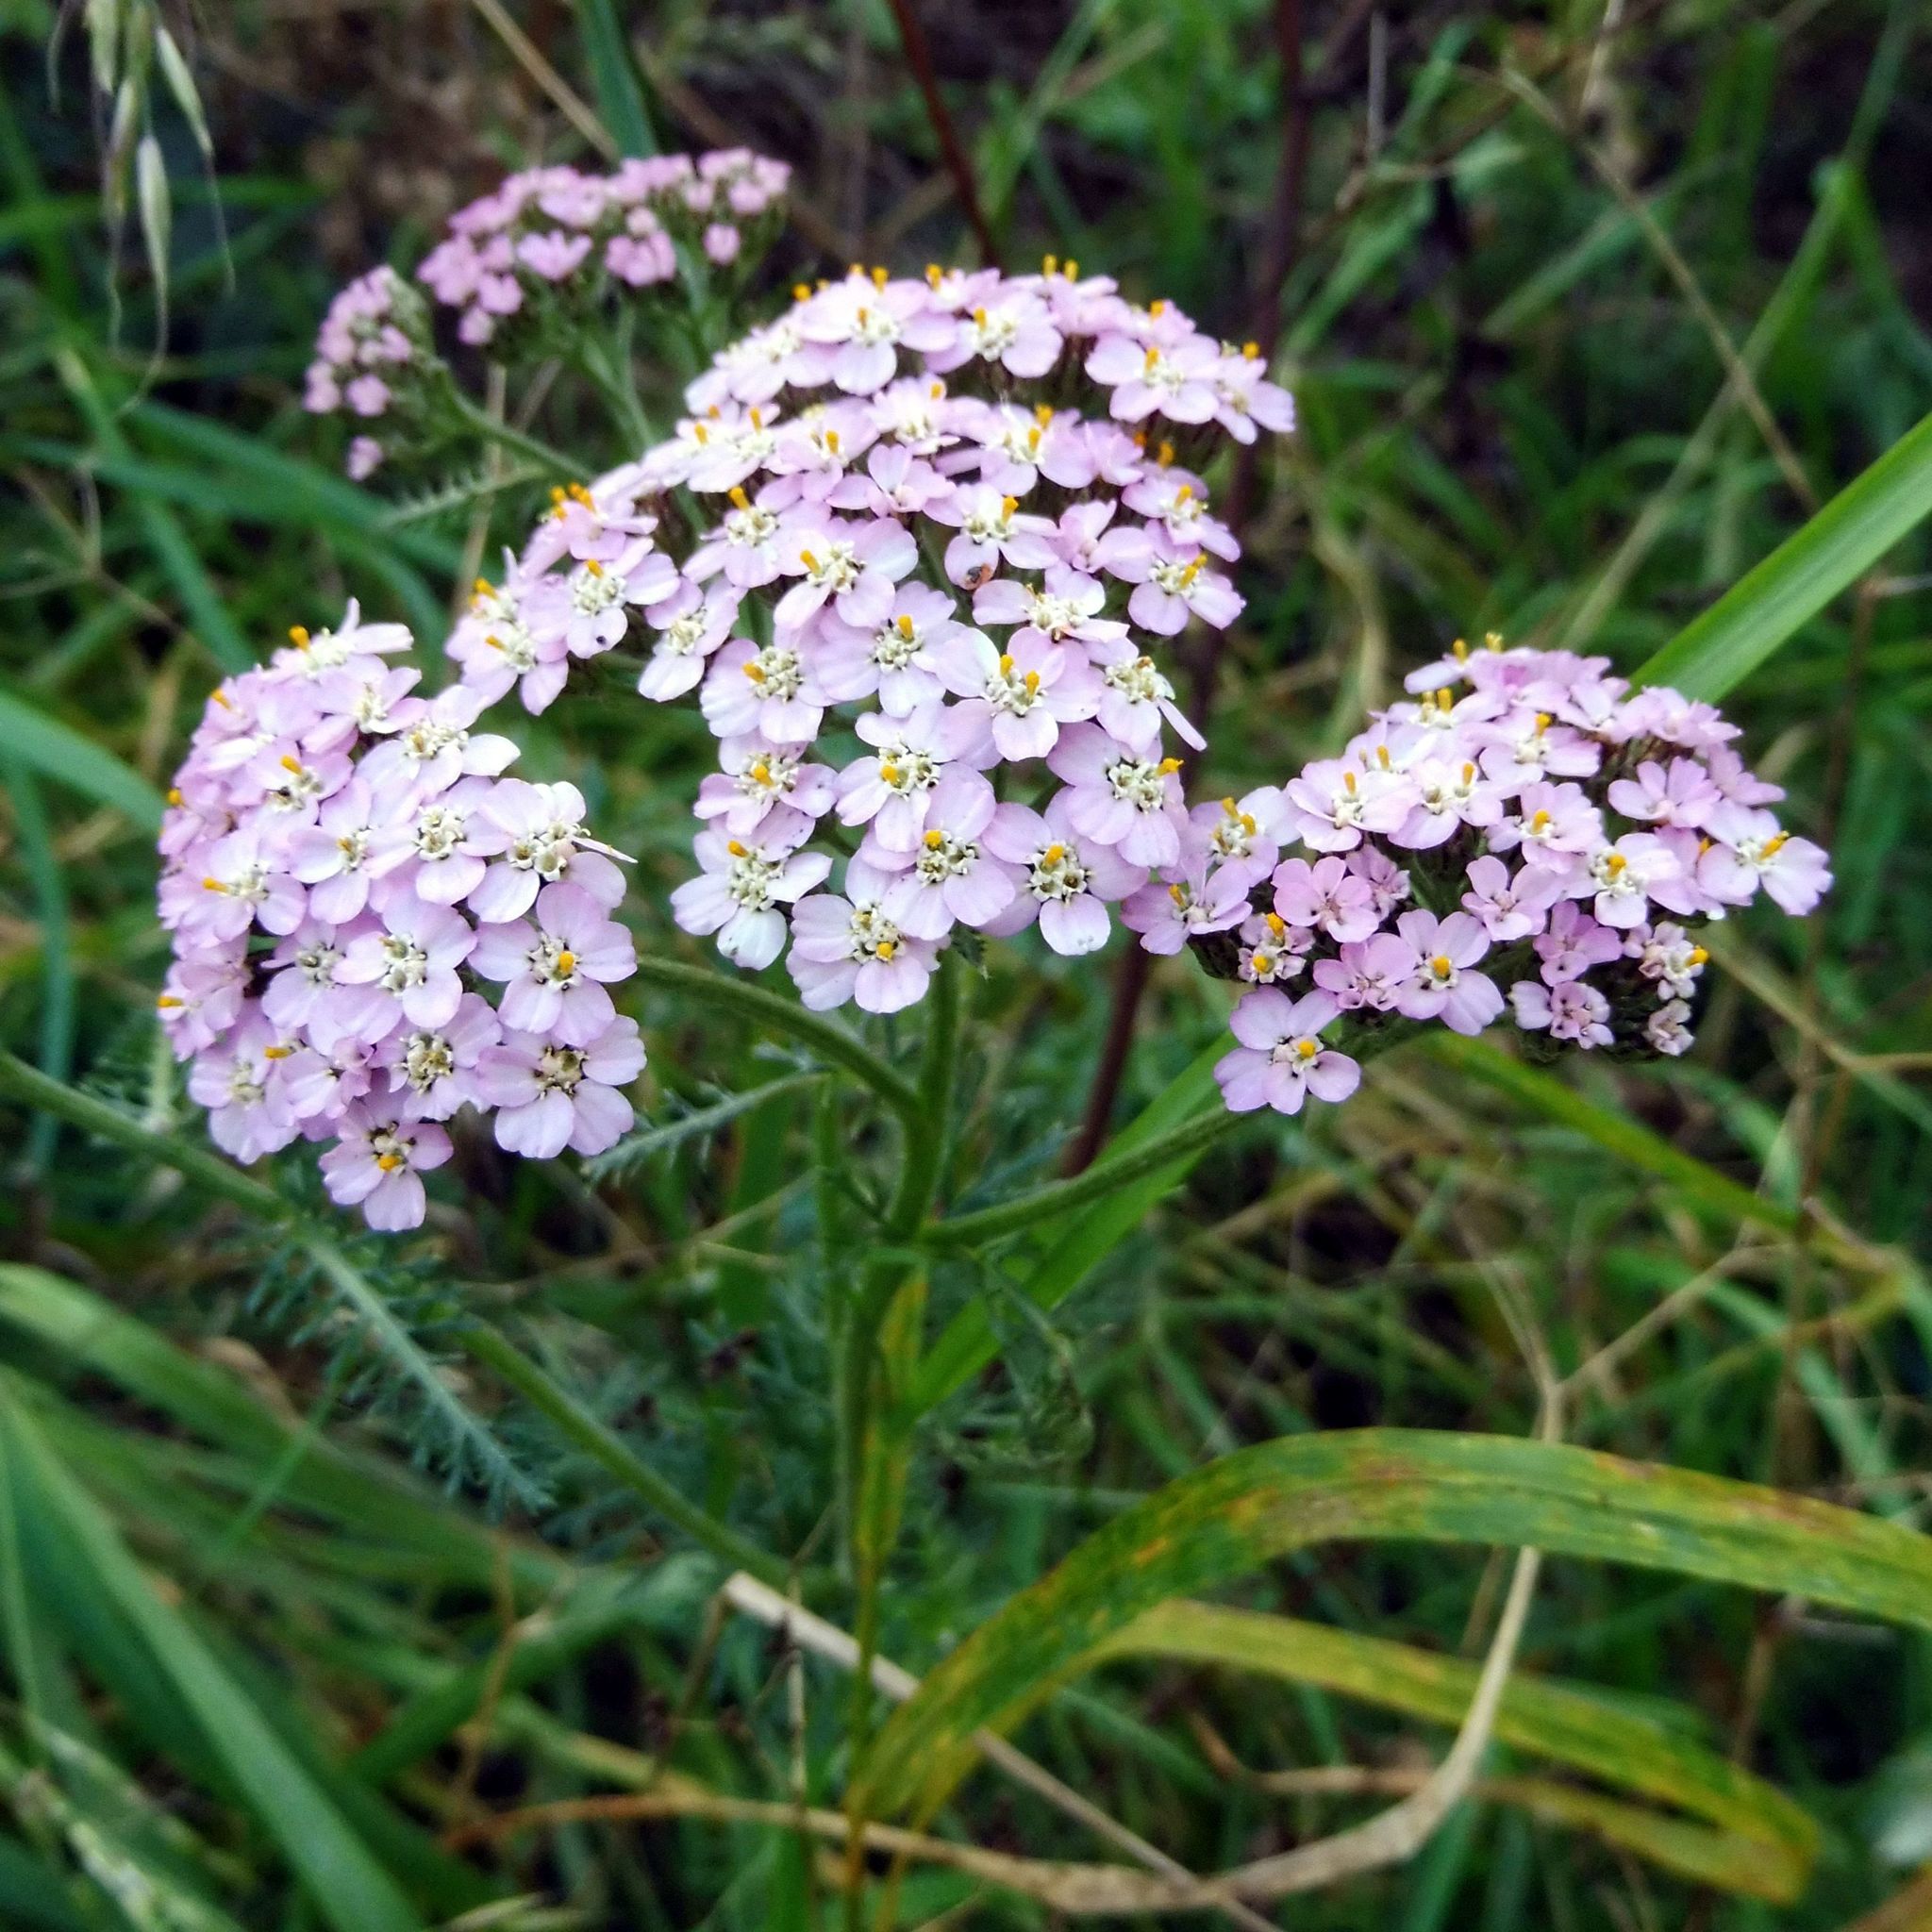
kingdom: Plantae
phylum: Tracheophyta
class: Magnoliopsida
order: Asterales
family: Asteraceae
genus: Achillea
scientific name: Achillea millefolium
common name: Yarrow
